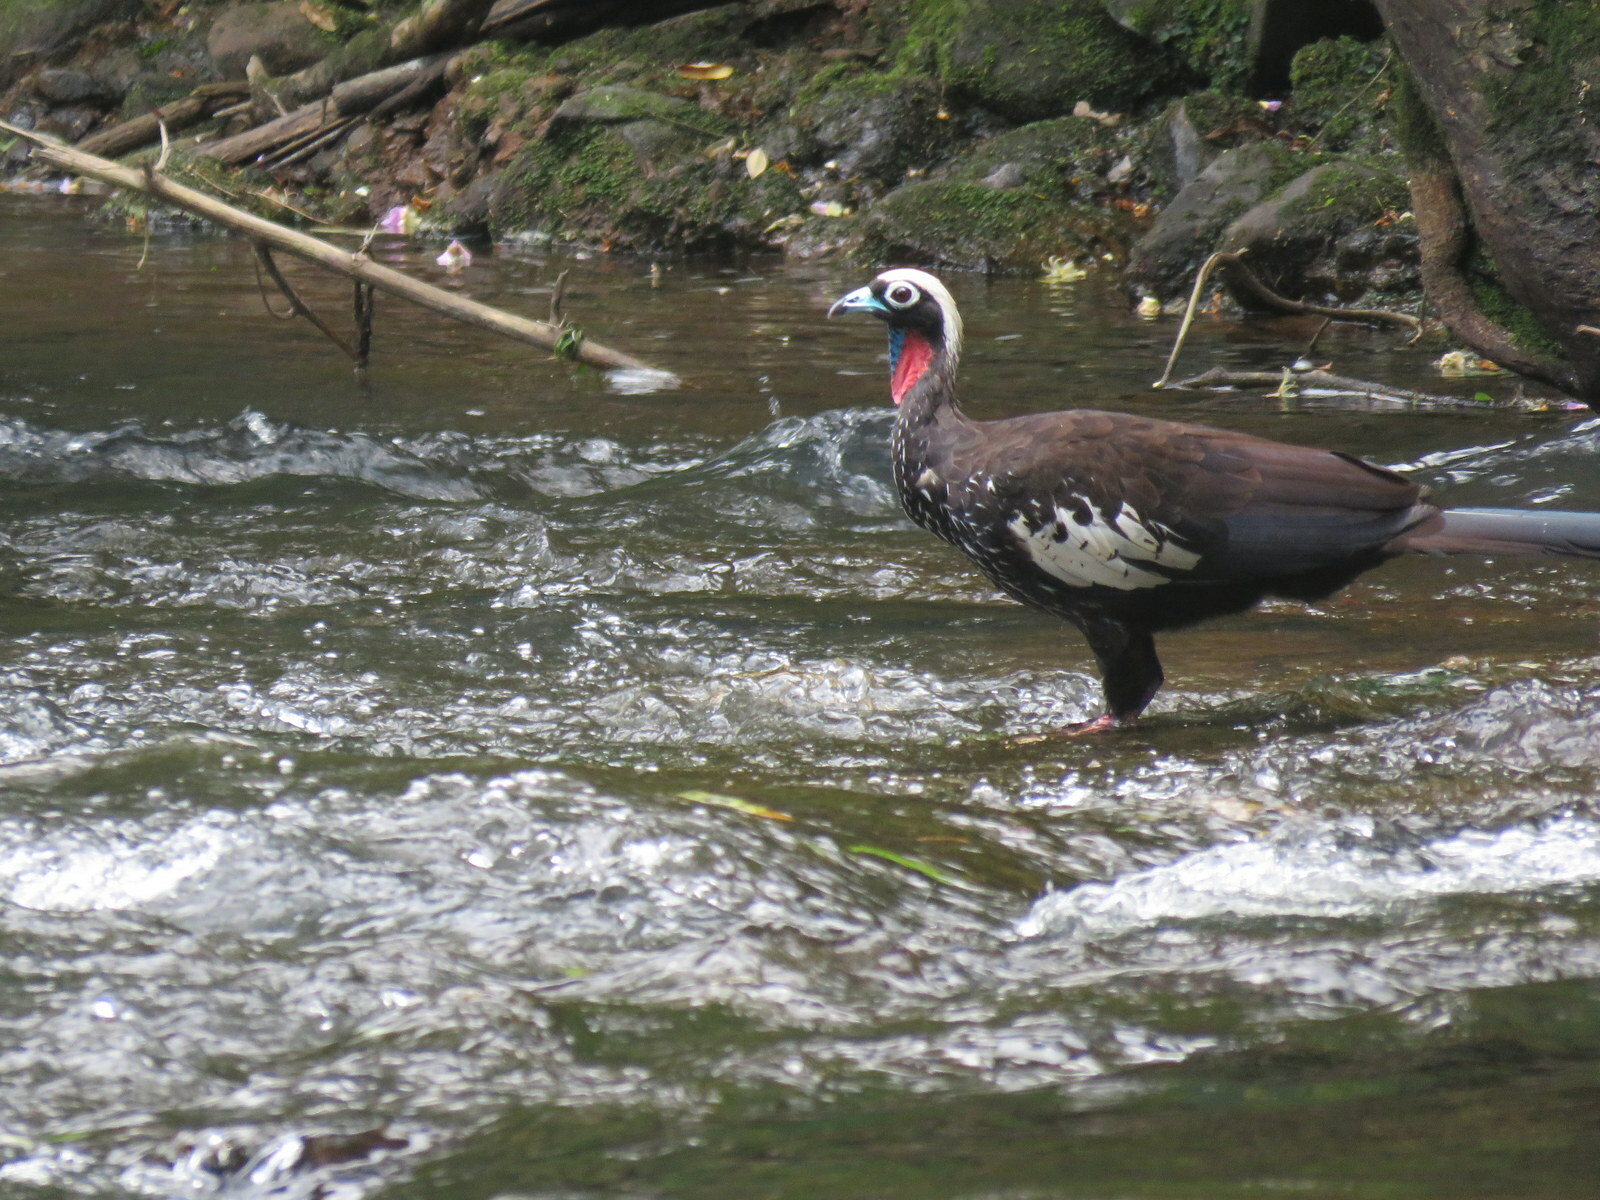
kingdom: Animalia
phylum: Chordata
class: Aves
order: Galliformes
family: Cracidae
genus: Pipile
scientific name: Pipile jacutinga
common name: Black-fronted piping-guan
